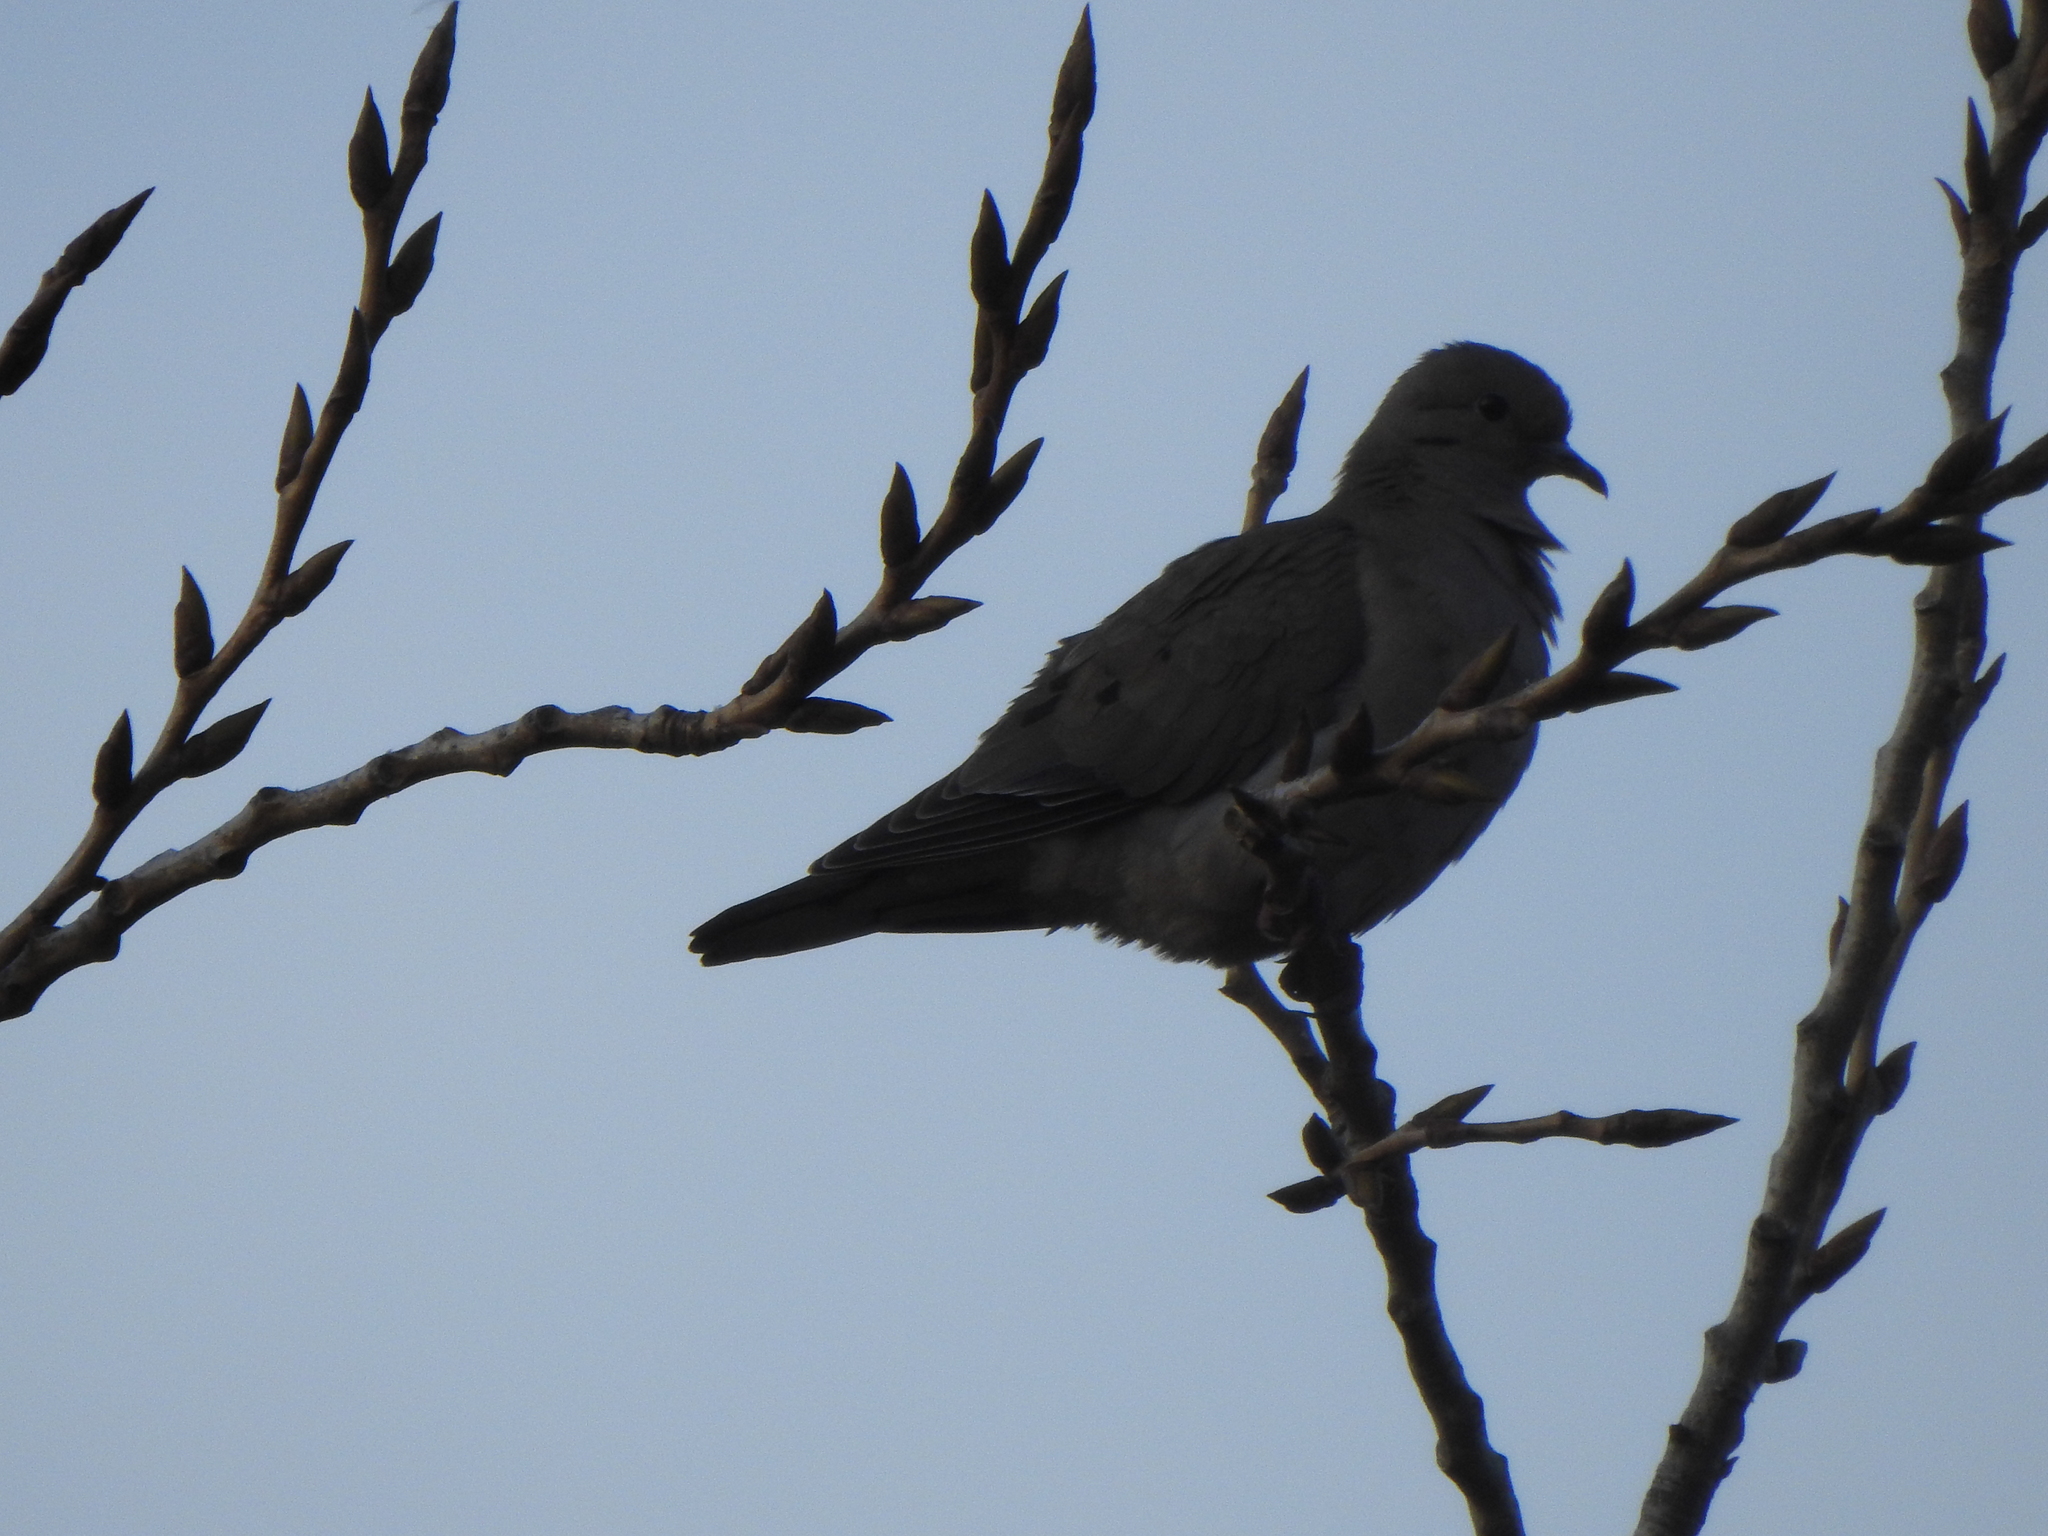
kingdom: Animalia
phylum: Chordata
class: Aves
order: Columbiformes
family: Columbidae
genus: Zenaida
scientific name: Zenaida auriculata
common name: Eared dove
